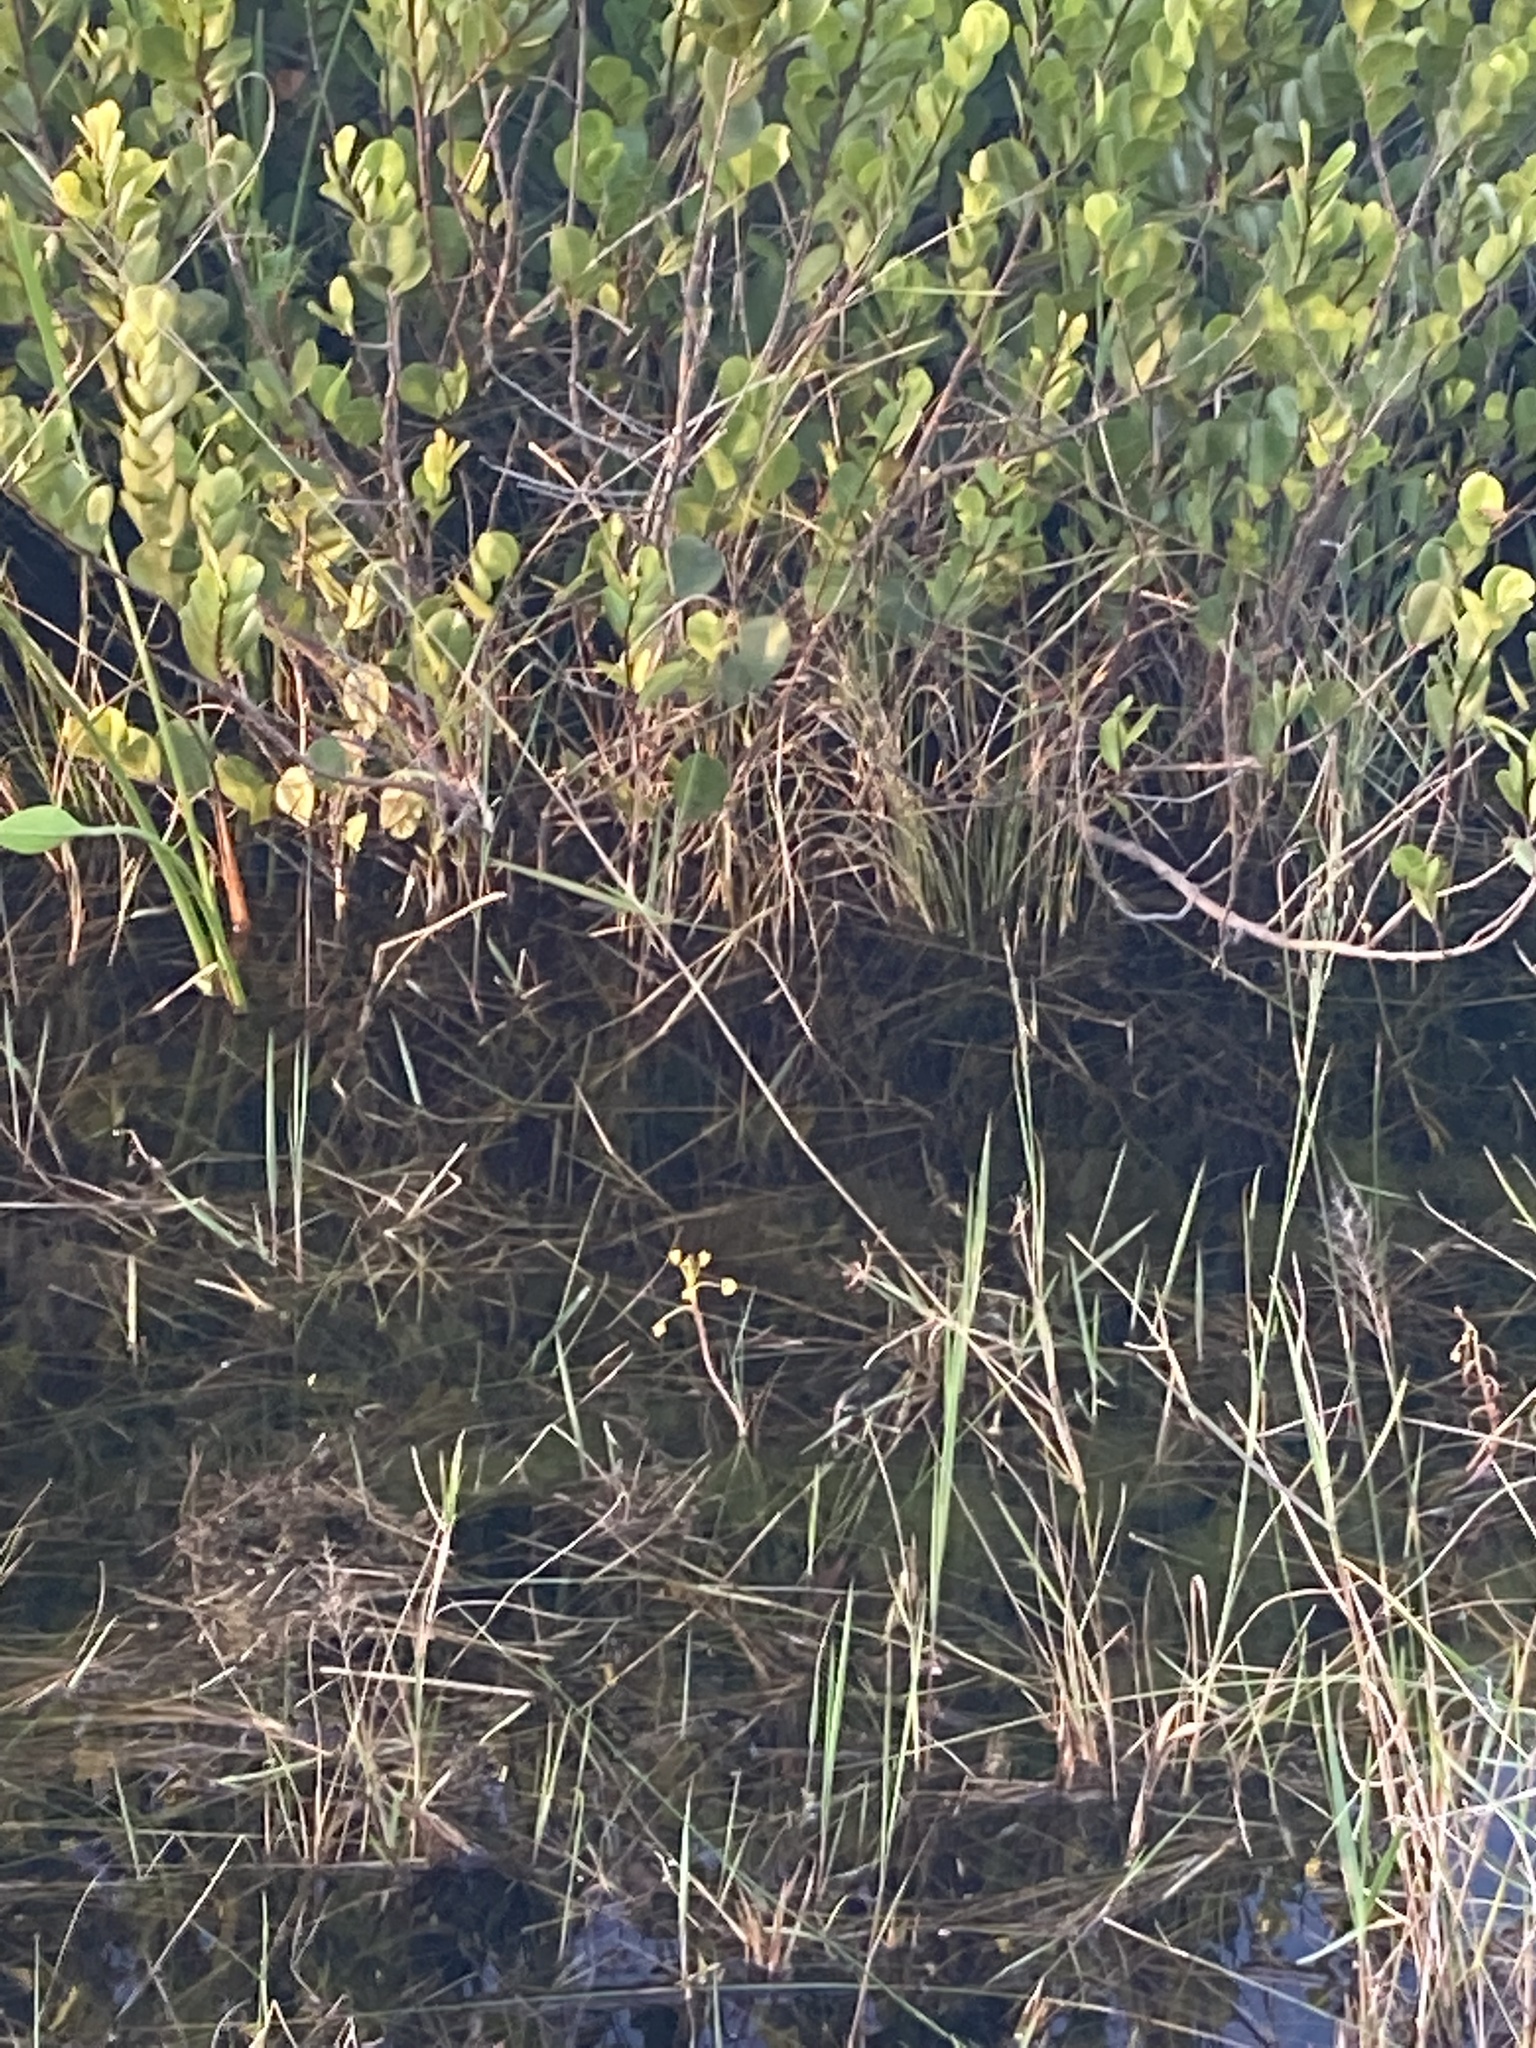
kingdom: Plantae
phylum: Tracheophyta
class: Magnoliopsida
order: Lamiales
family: Lentibulariaceae
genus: Utricularia
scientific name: Utricularia foliosa
